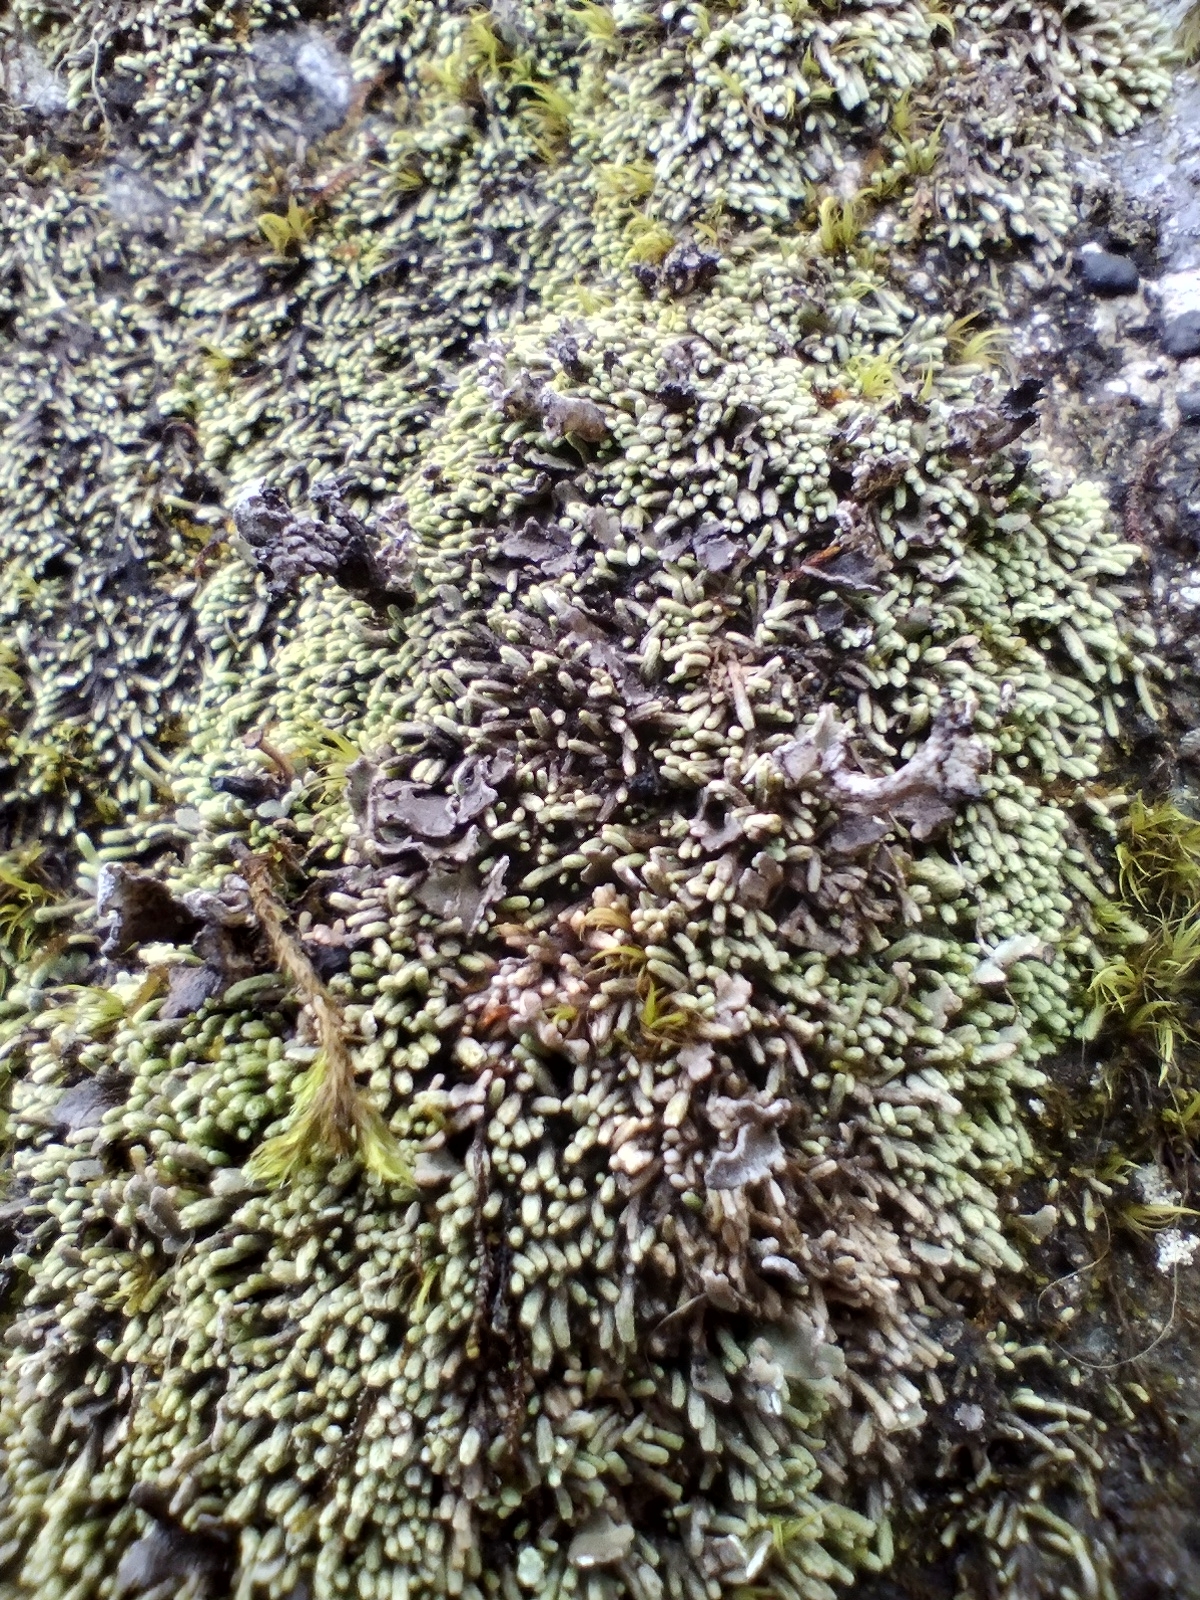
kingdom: Plantae
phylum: Marchantiophyta
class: Jungermanniopsida
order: Jungermanniales
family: Gymnomitriaceae
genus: Gymnomitrion
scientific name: Gymnomitrion obtusum
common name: White frostwort
